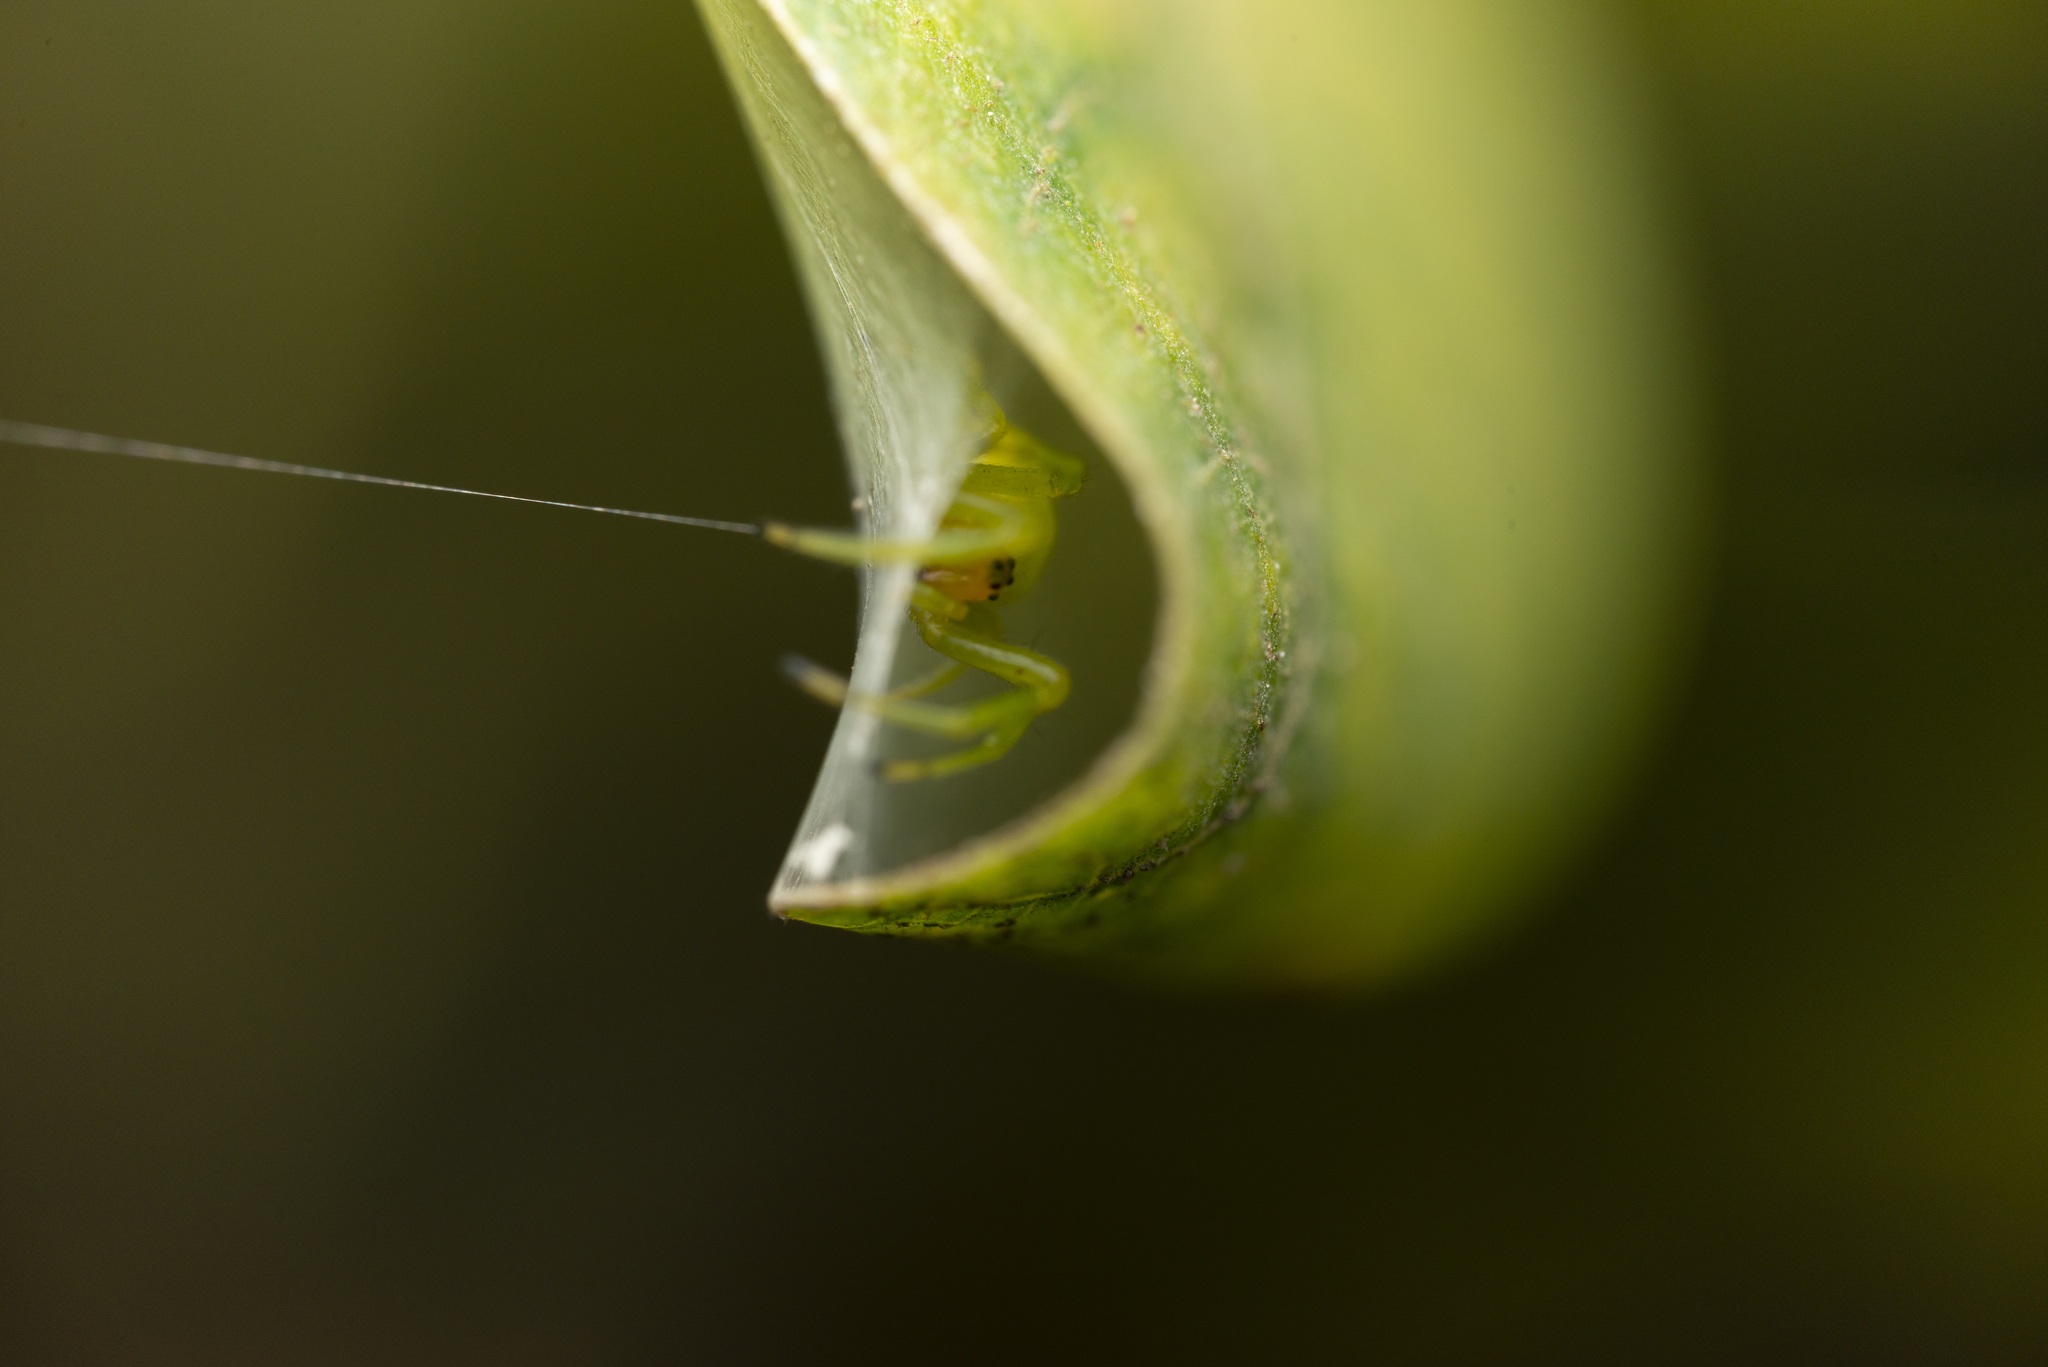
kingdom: Animalia
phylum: Arthropoda
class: Arachnida
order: Araneae
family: Araneidae
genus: Bijoaraneus
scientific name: Bijoaraneus mitificus
